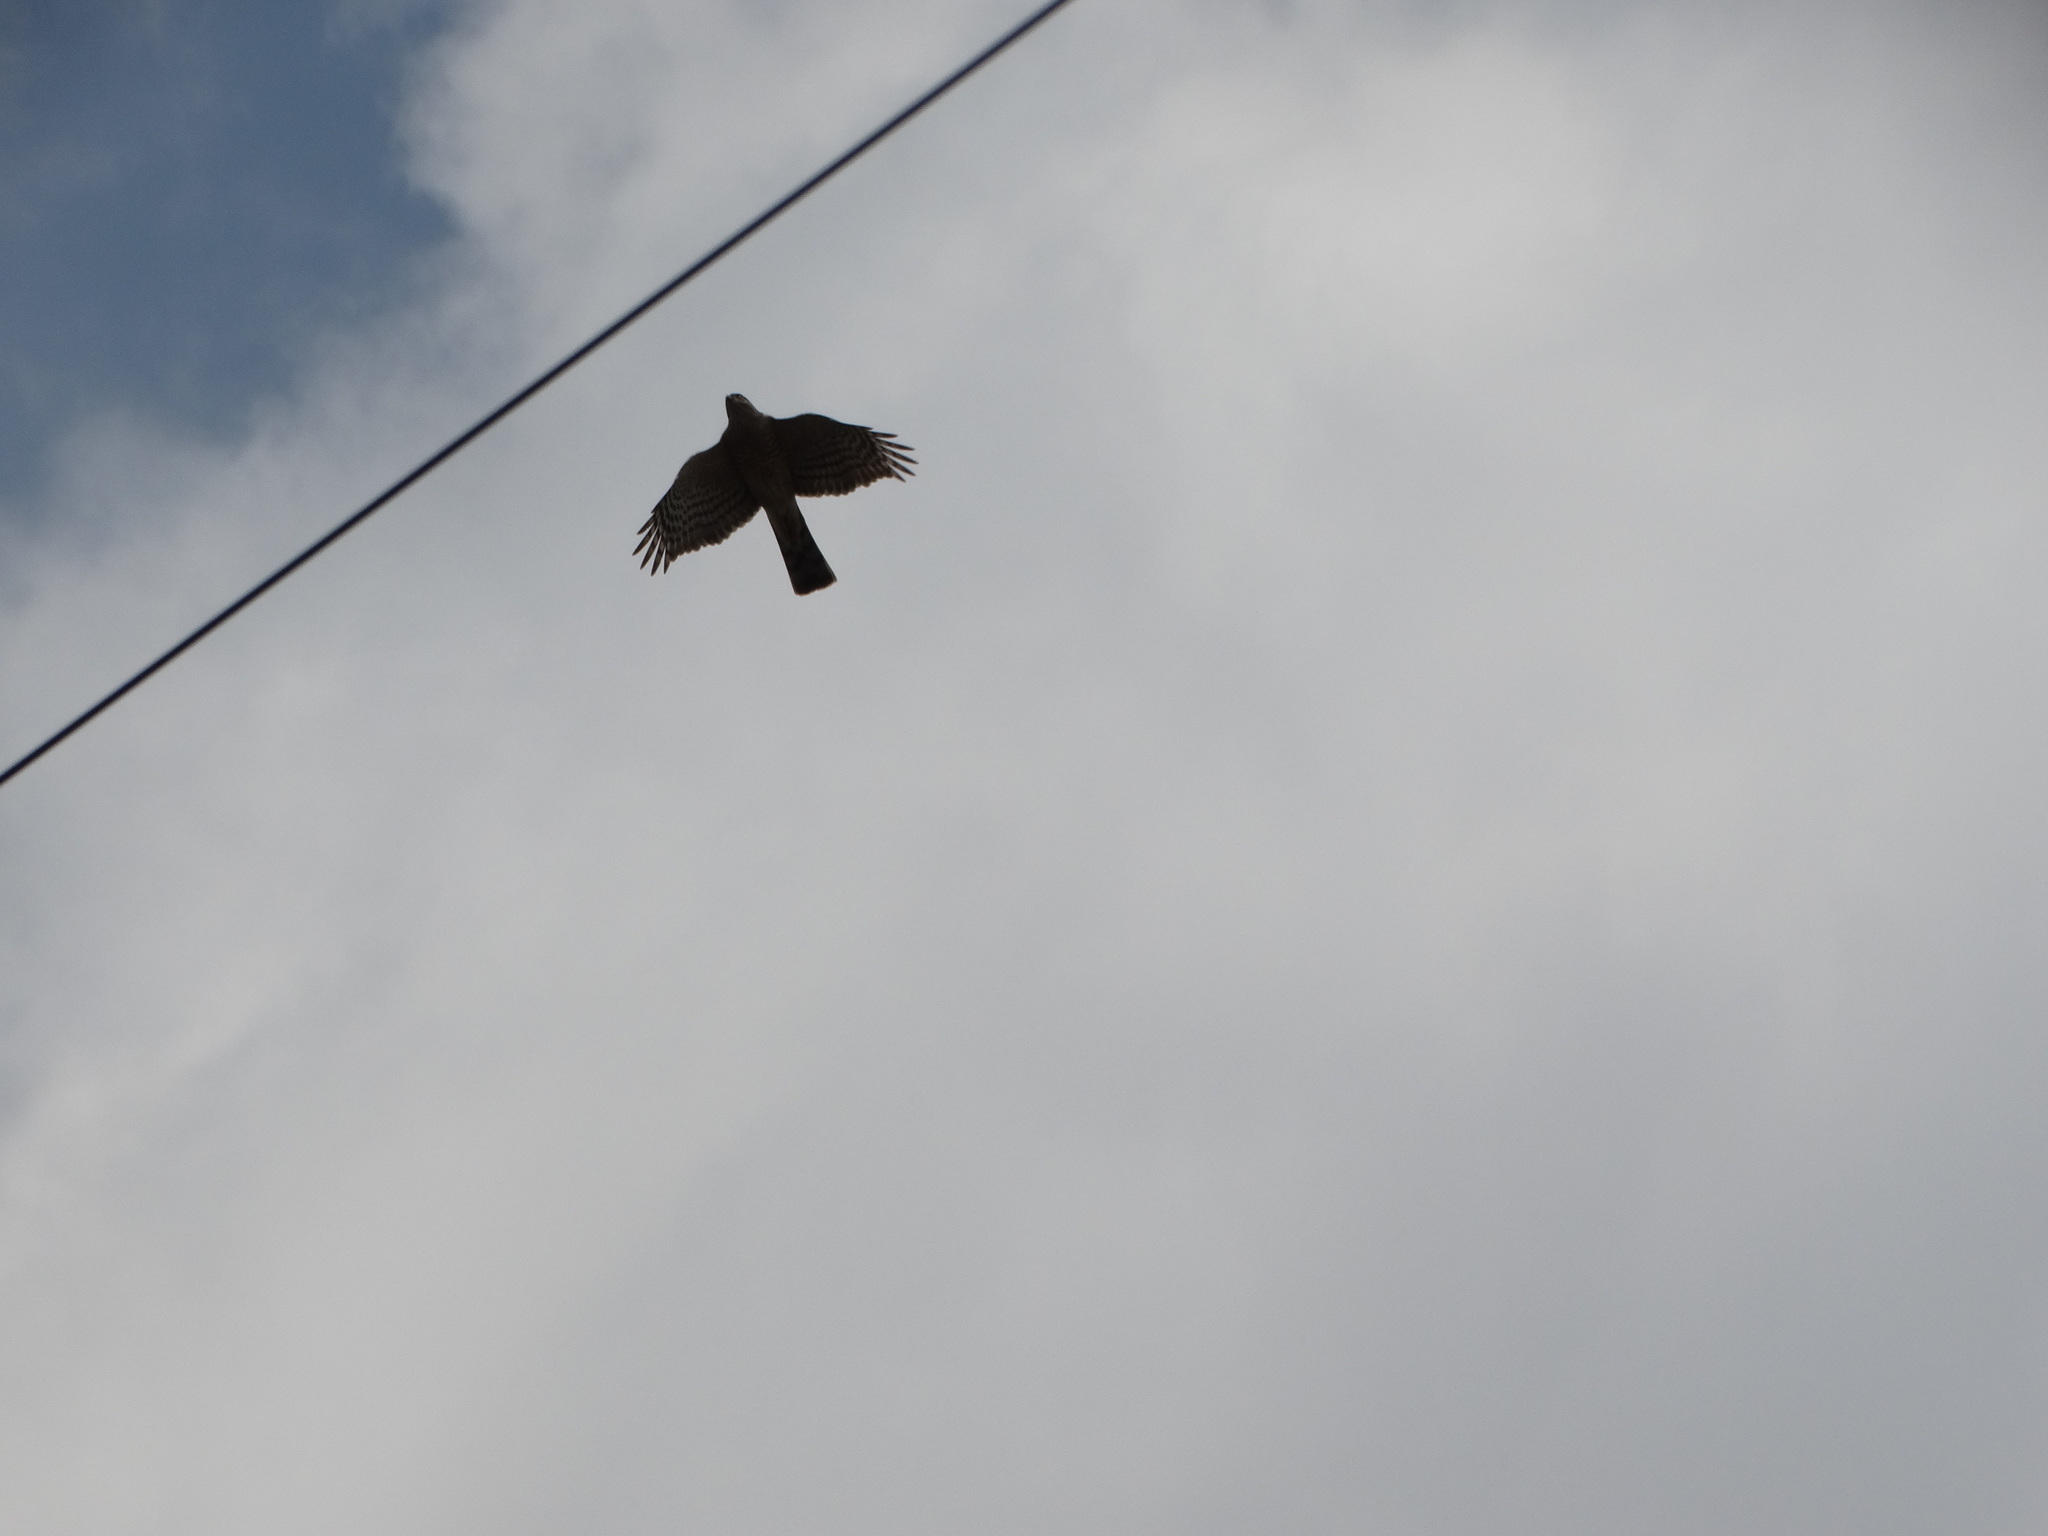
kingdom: Animalia
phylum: Chordata
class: Aves
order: Accipitriformes
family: Accipitridae
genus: Accipiter
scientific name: Accipiter striatus
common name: Sharp-shinned hawk
